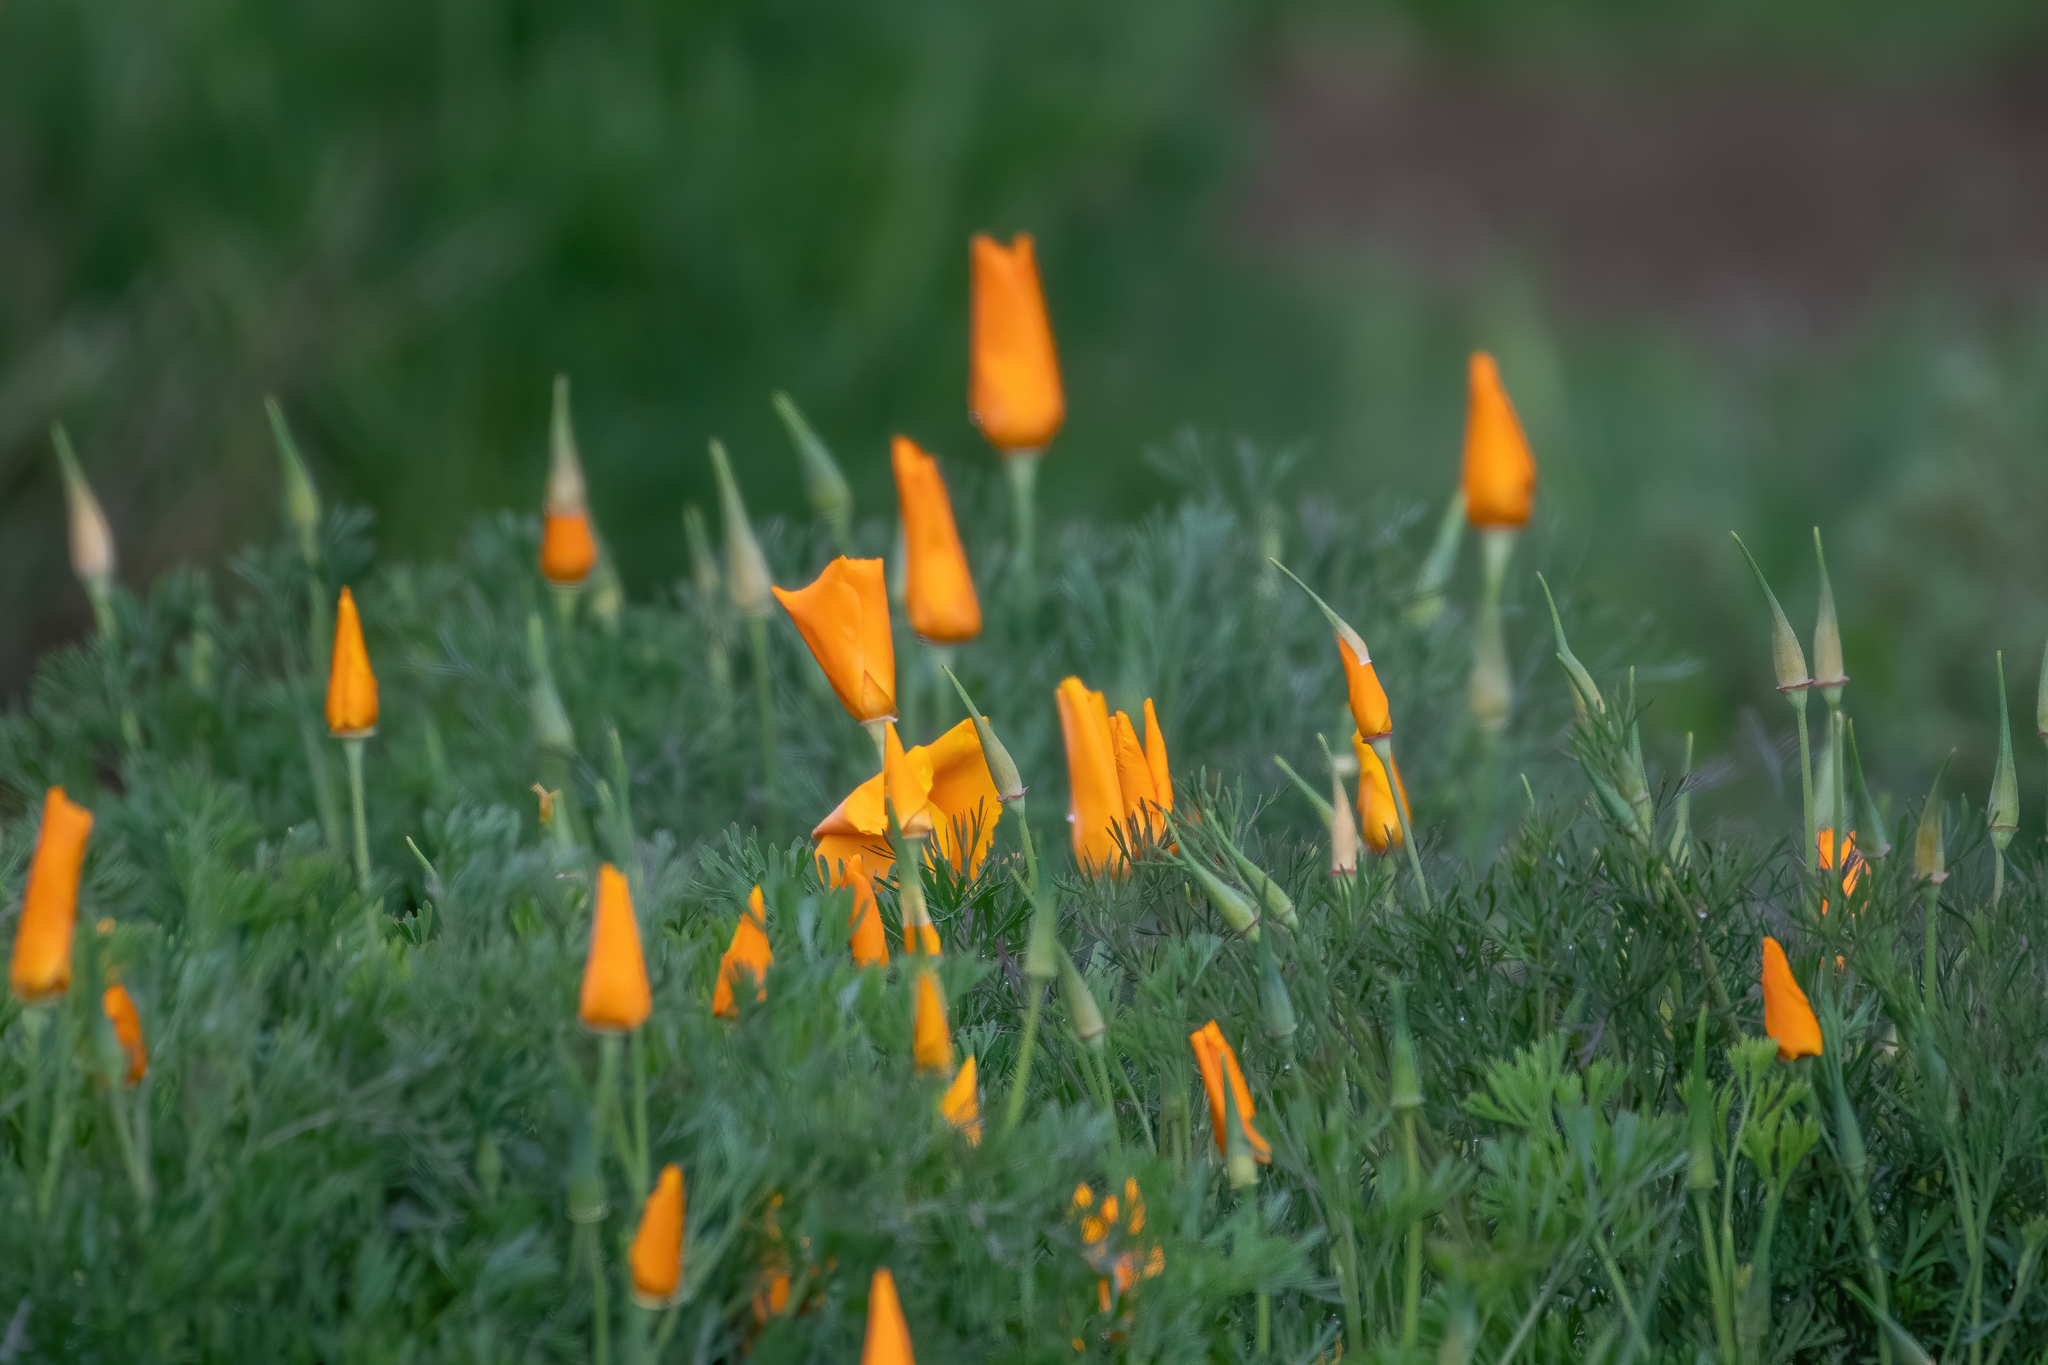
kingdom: Plantae
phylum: Tracheophyta
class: Magnoliopsida
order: Ranunculales
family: Papaveraceae
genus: Eschscholzia
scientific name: Eschscholzia californica
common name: California poppy
